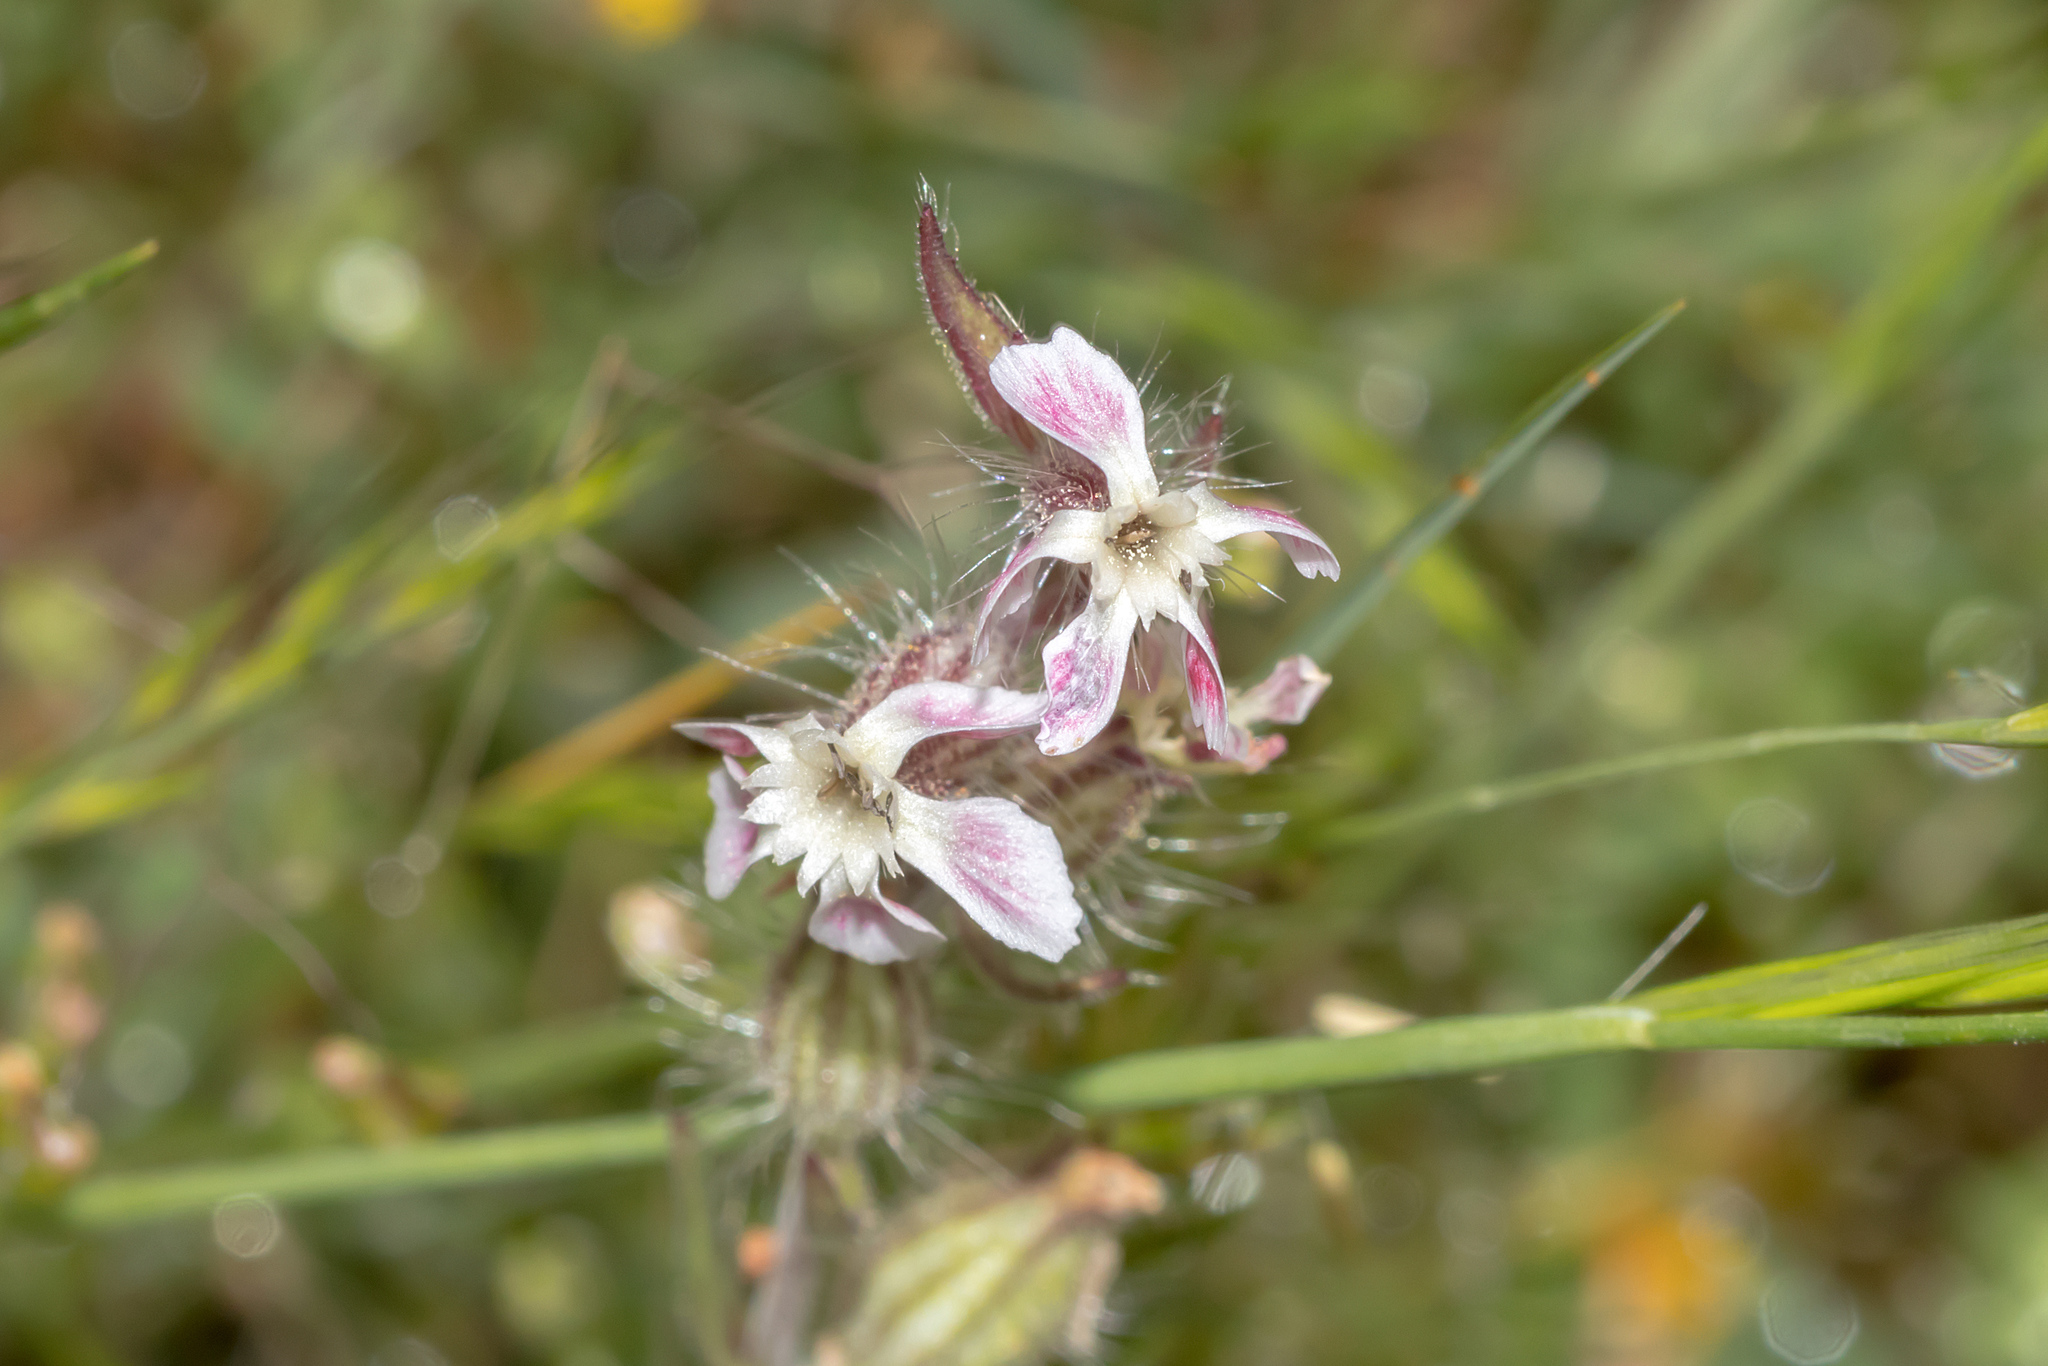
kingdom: Plantae
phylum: Tracheophyta
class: Magnoliopsida
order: Caryophyllales
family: Caryophyllaceae
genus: Silene
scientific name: Silene gallica
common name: Small-flowered catchfly
